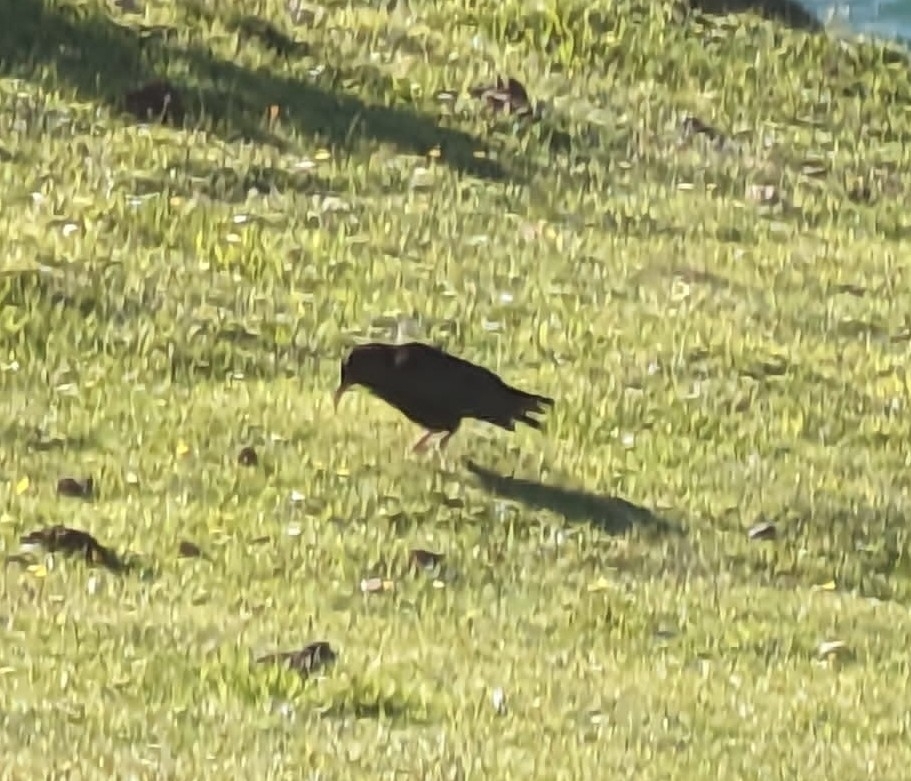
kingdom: Animalia
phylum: Chordata
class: Aves
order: Passeriformes
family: Corvidae
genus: Pyrrhocorax
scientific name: Pyrrhocorax pyrrhocorax
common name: Red-billed chough
